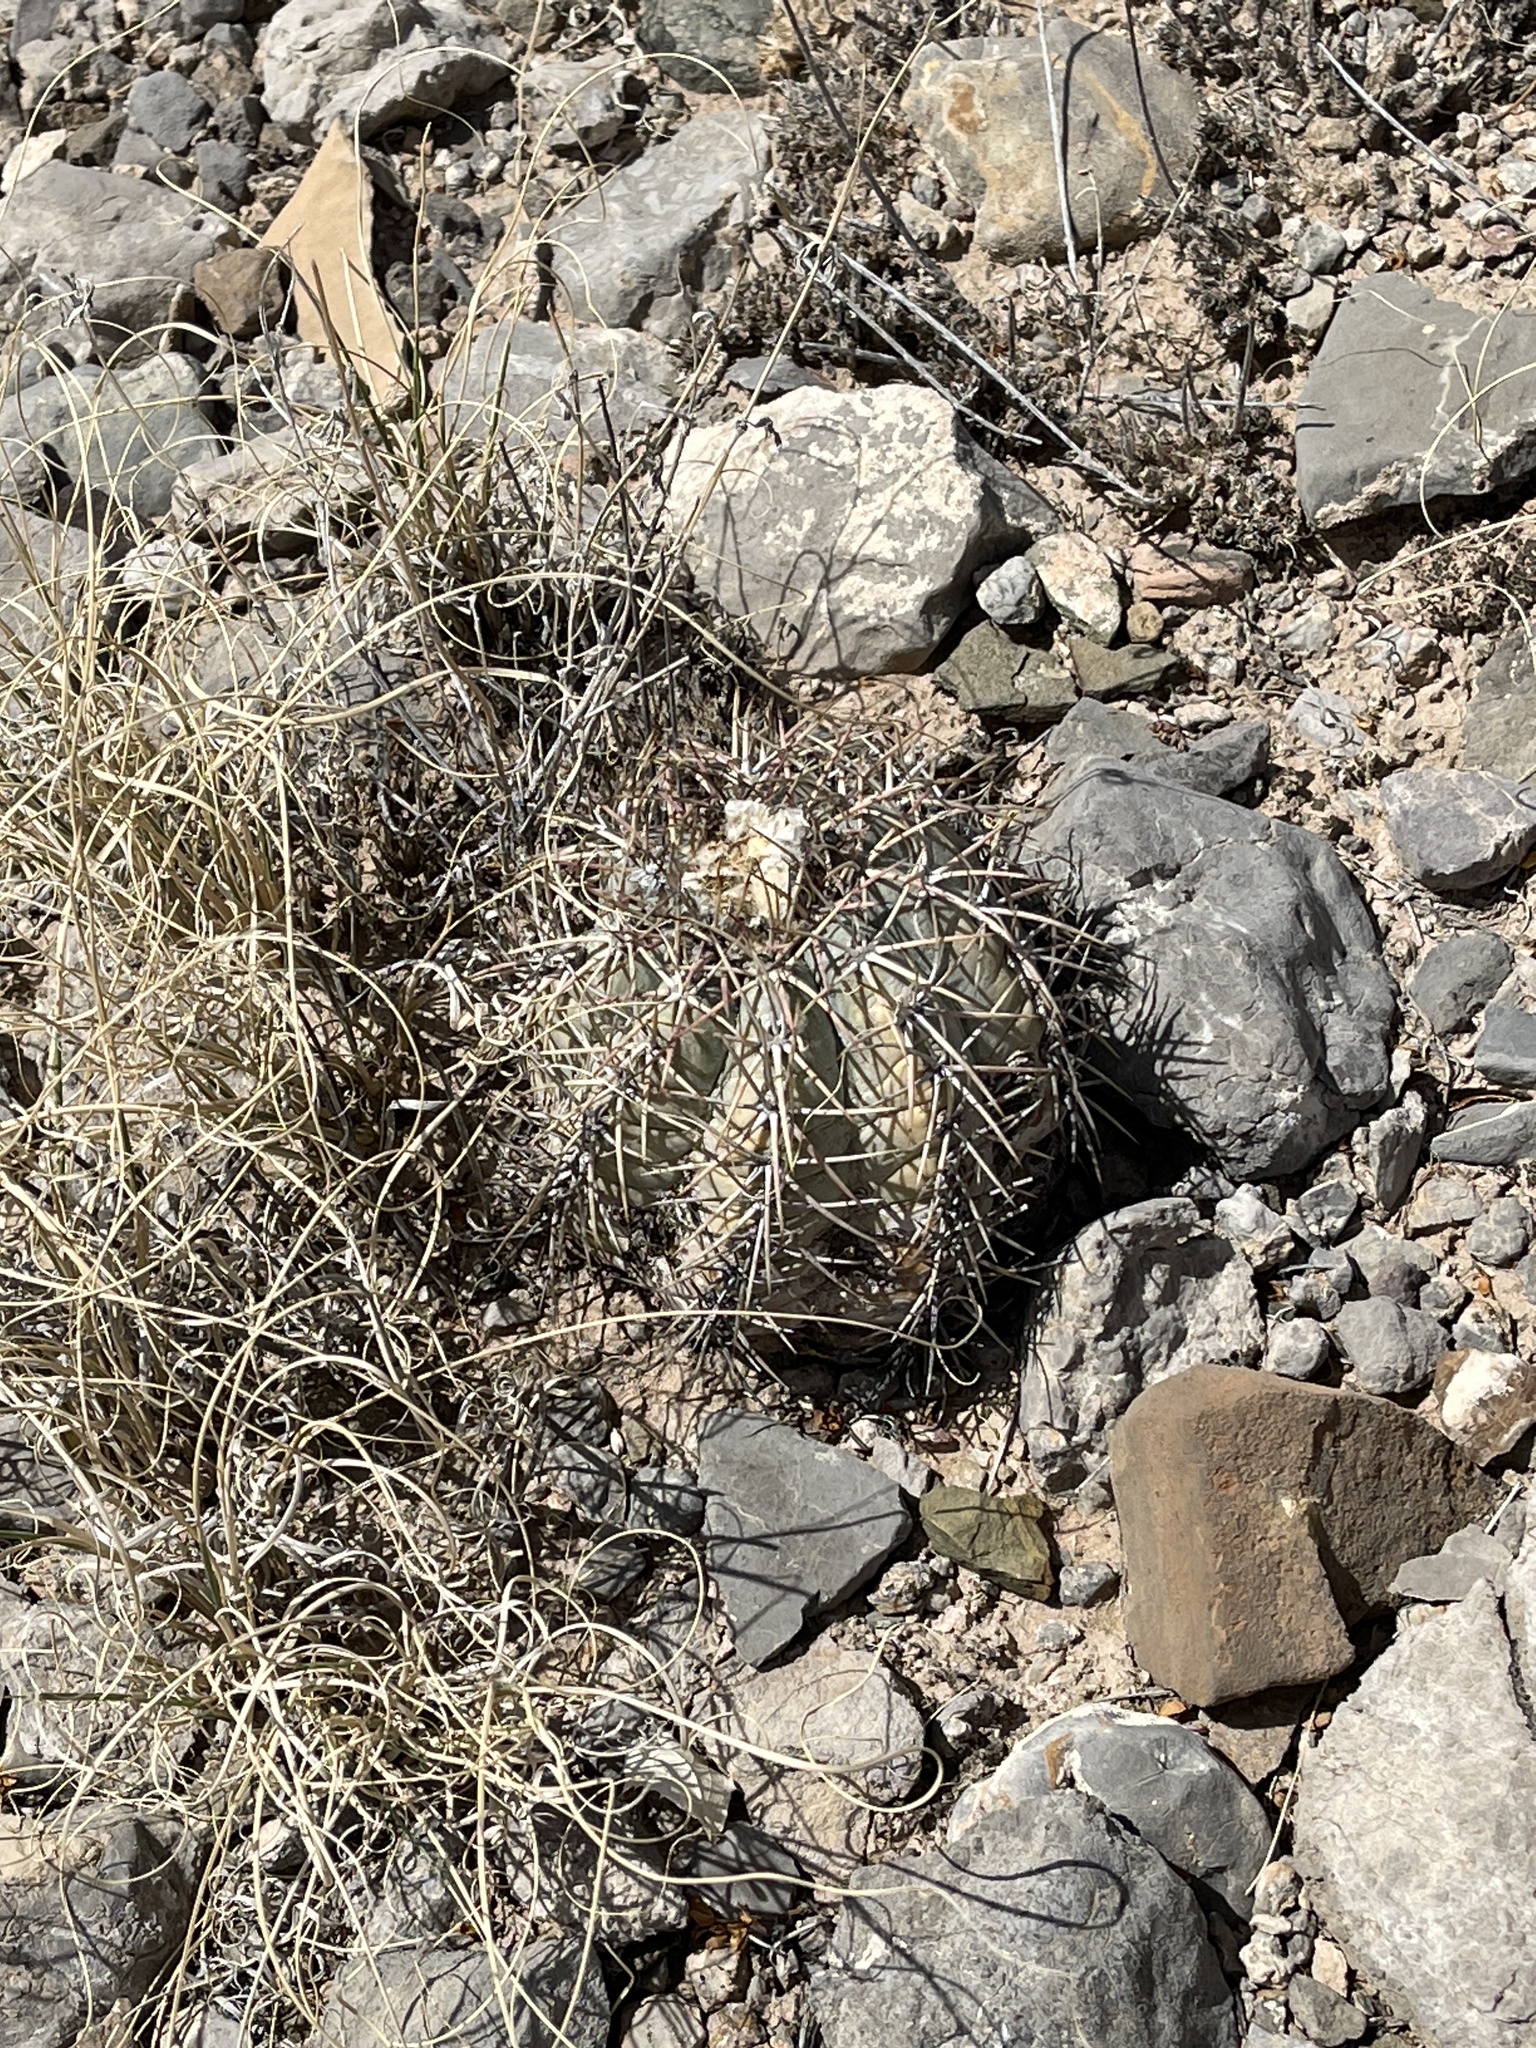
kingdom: Plantae
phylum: Tracheophyta
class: Magnoliopsida
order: Caryophyllales
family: Cactaceae
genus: Echinocactus
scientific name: Echinocactus horizonthalonius
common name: Devilshead
